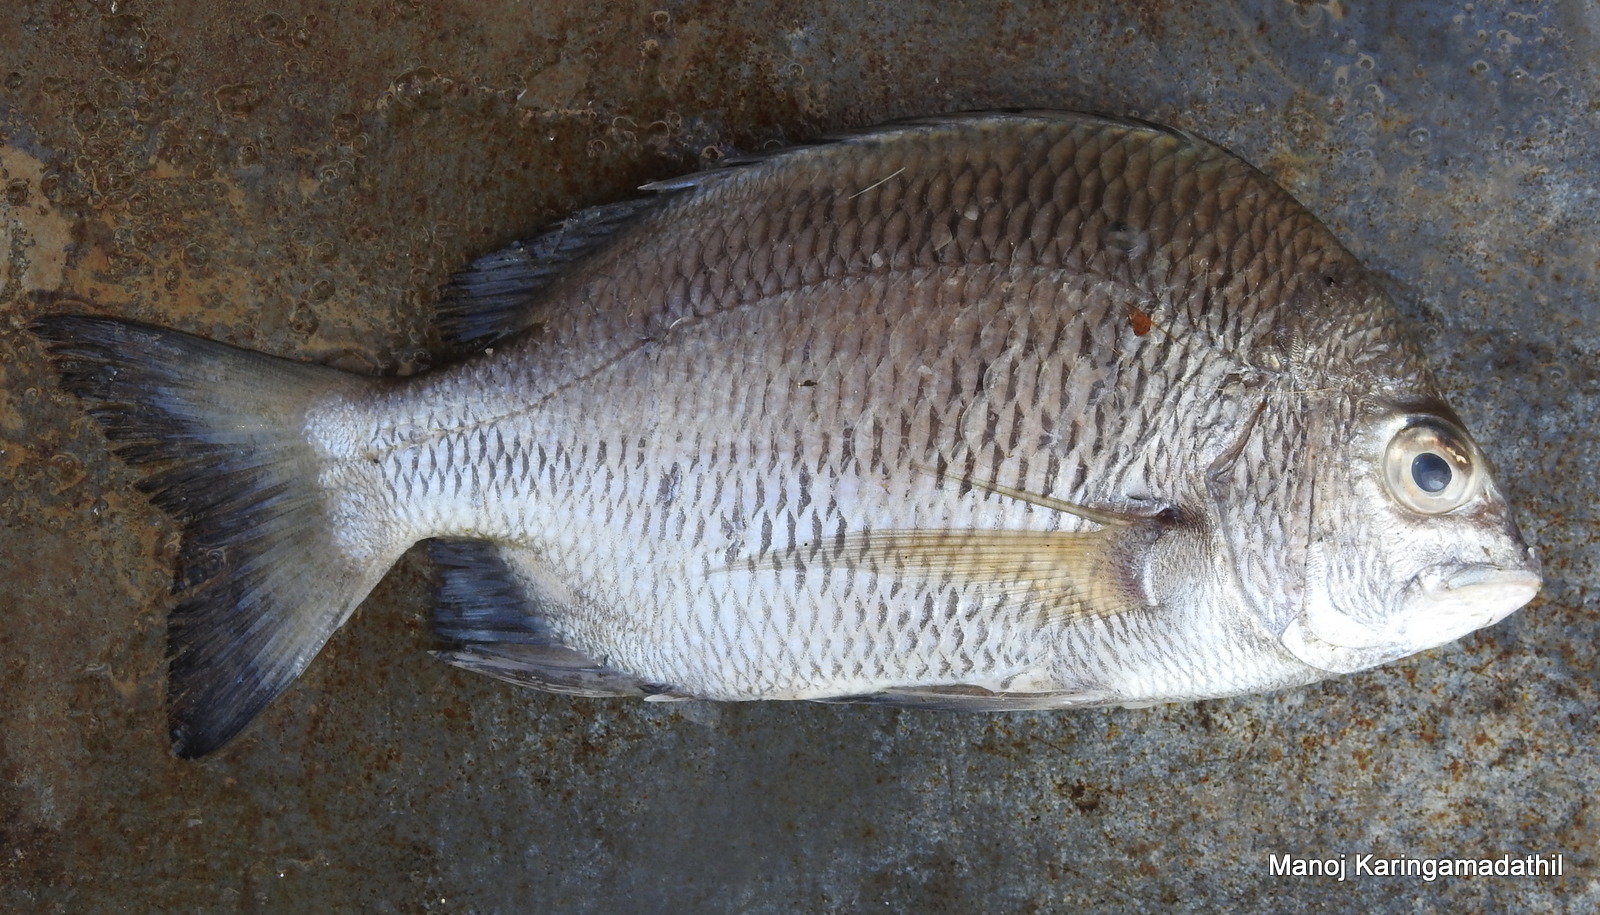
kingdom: Animalia
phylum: Chordata
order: Perciformes
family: Sparidae
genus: Acanthopagrus
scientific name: Acanthopagrus berda
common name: Picnic seabream
